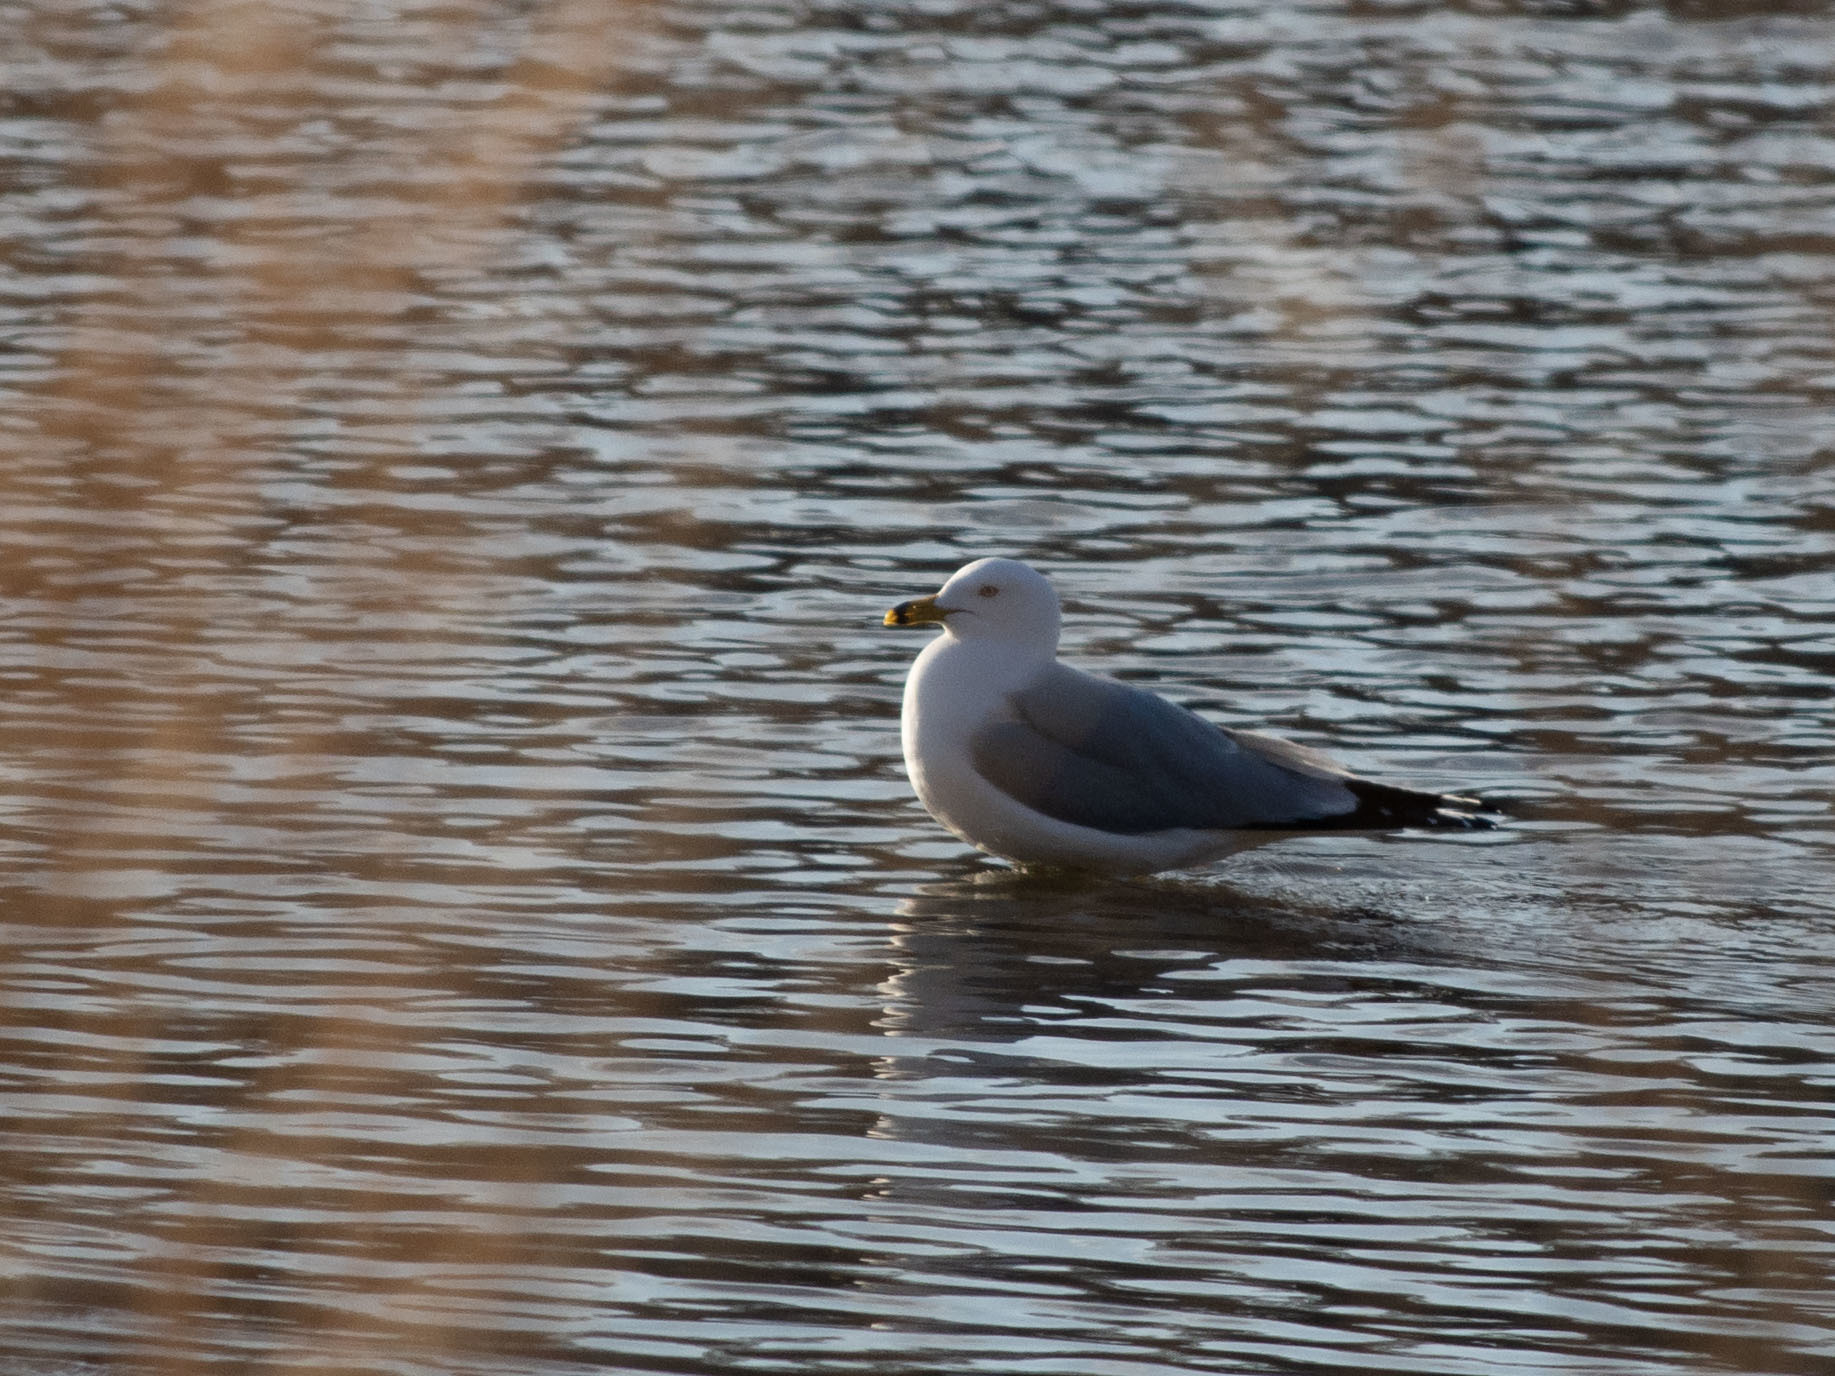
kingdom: Animalia
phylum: Chordata
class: Aves
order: Charadriiformes
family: Laridae
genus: Larus
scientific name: Larus delawarensis
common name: Ring-billed gull
